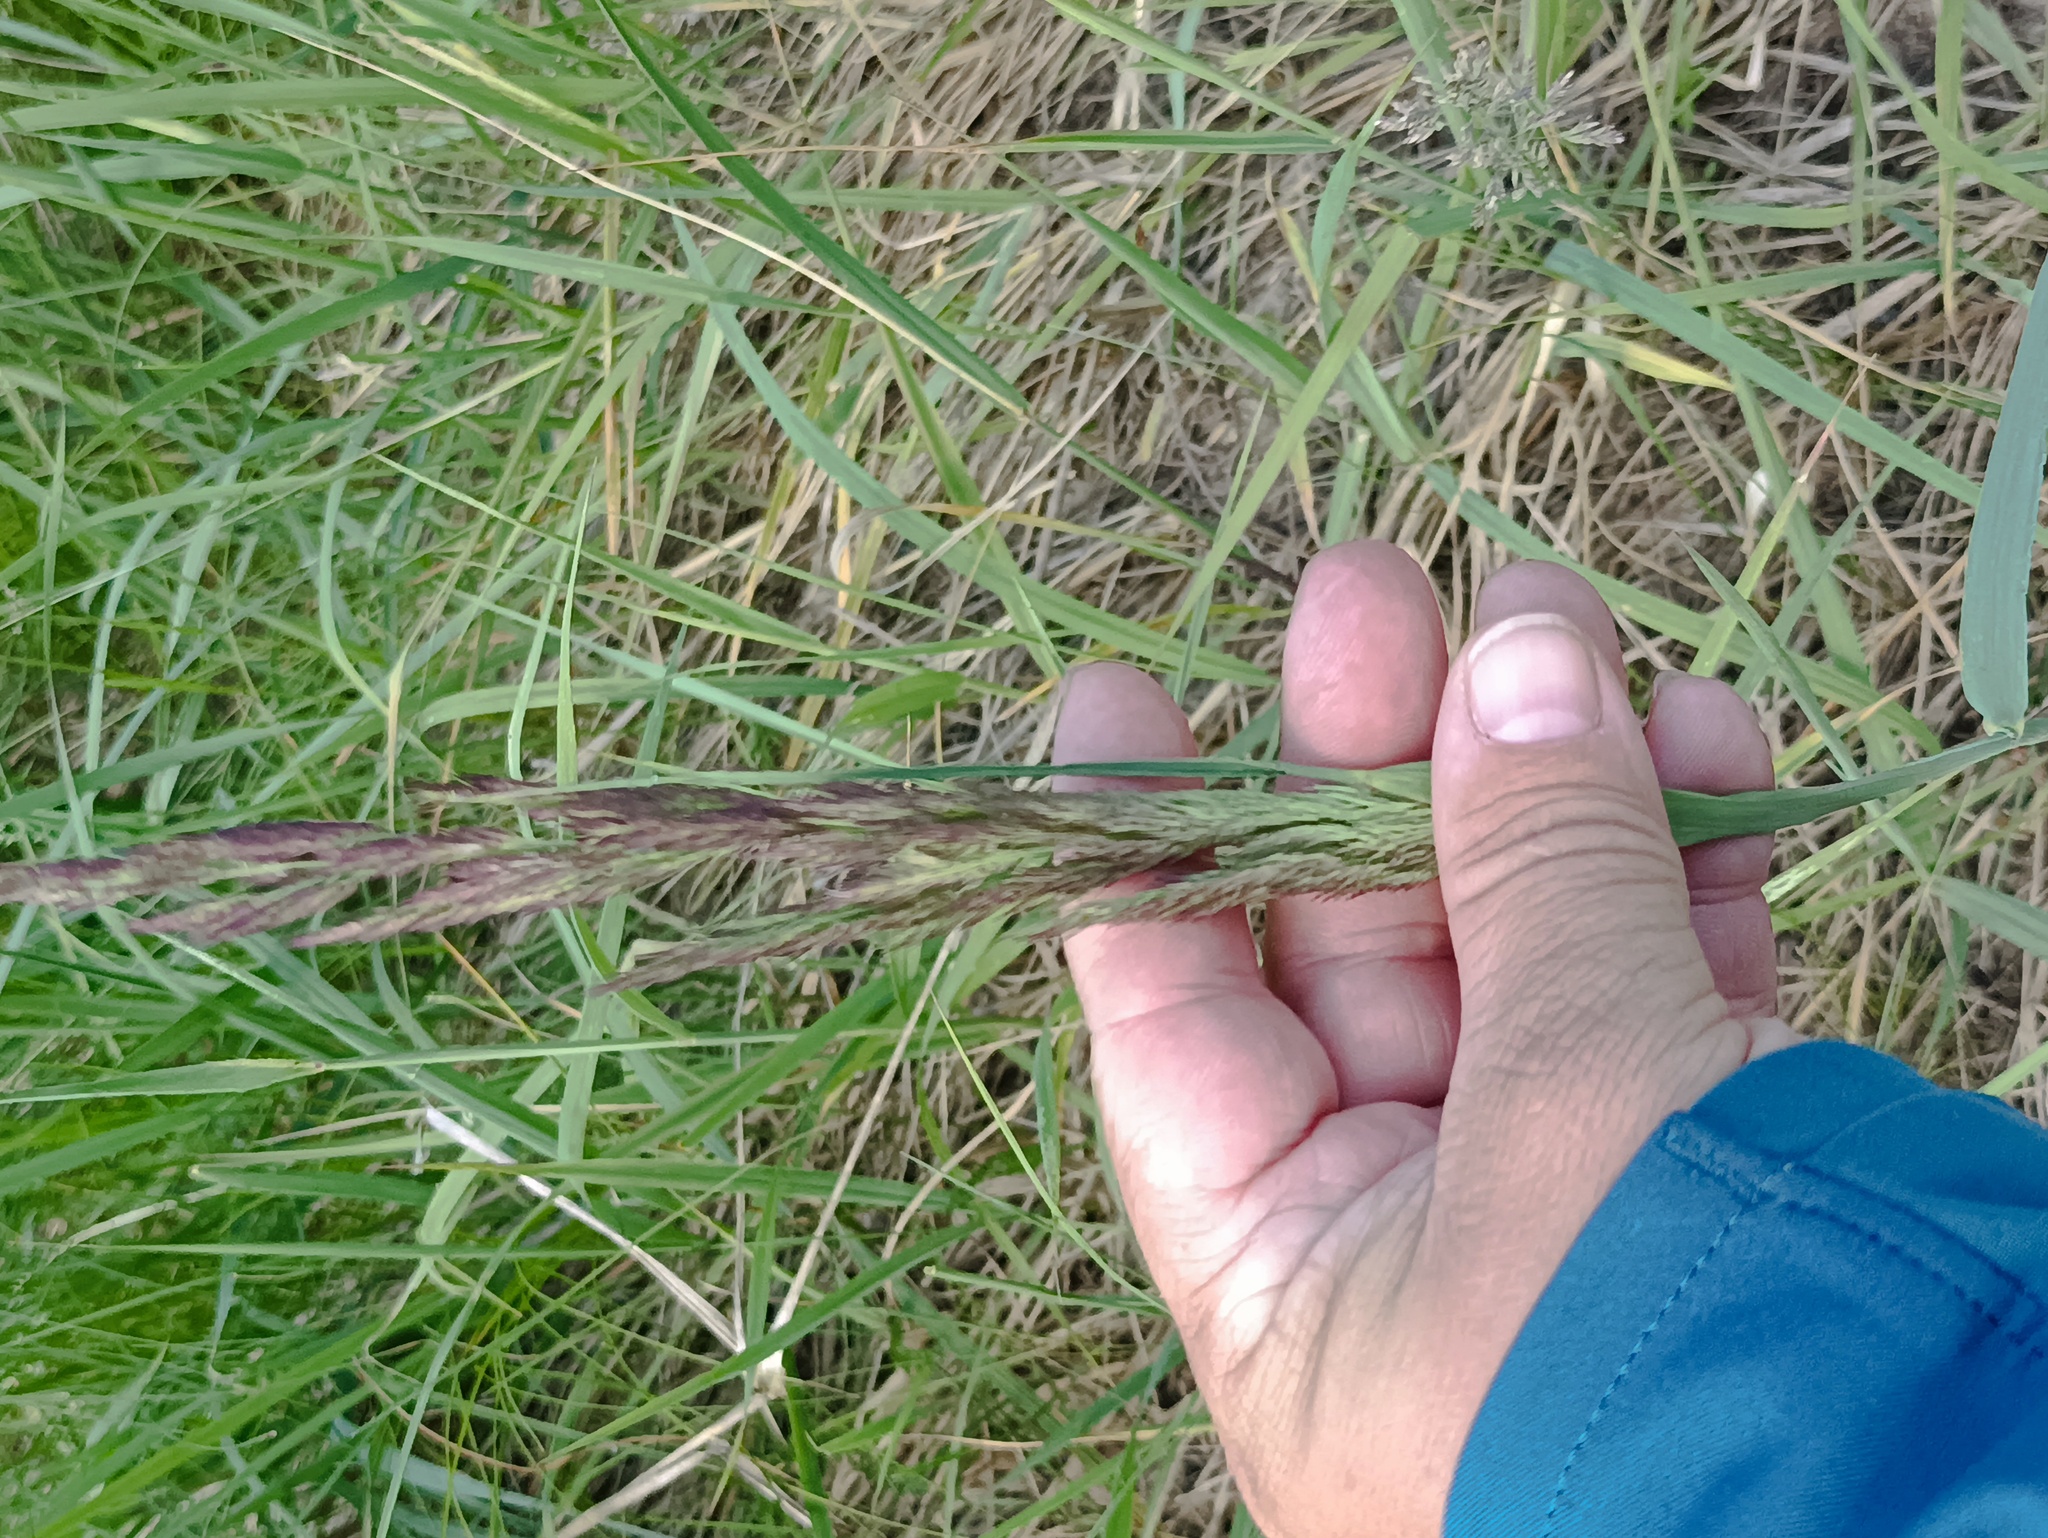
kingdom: Plantae
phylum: Tracheophyta
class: Liliopsida
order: Poales
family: Poaceae
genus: Calamagrostis
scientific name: Calamagrostis epigejos
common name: Wood small-reed
